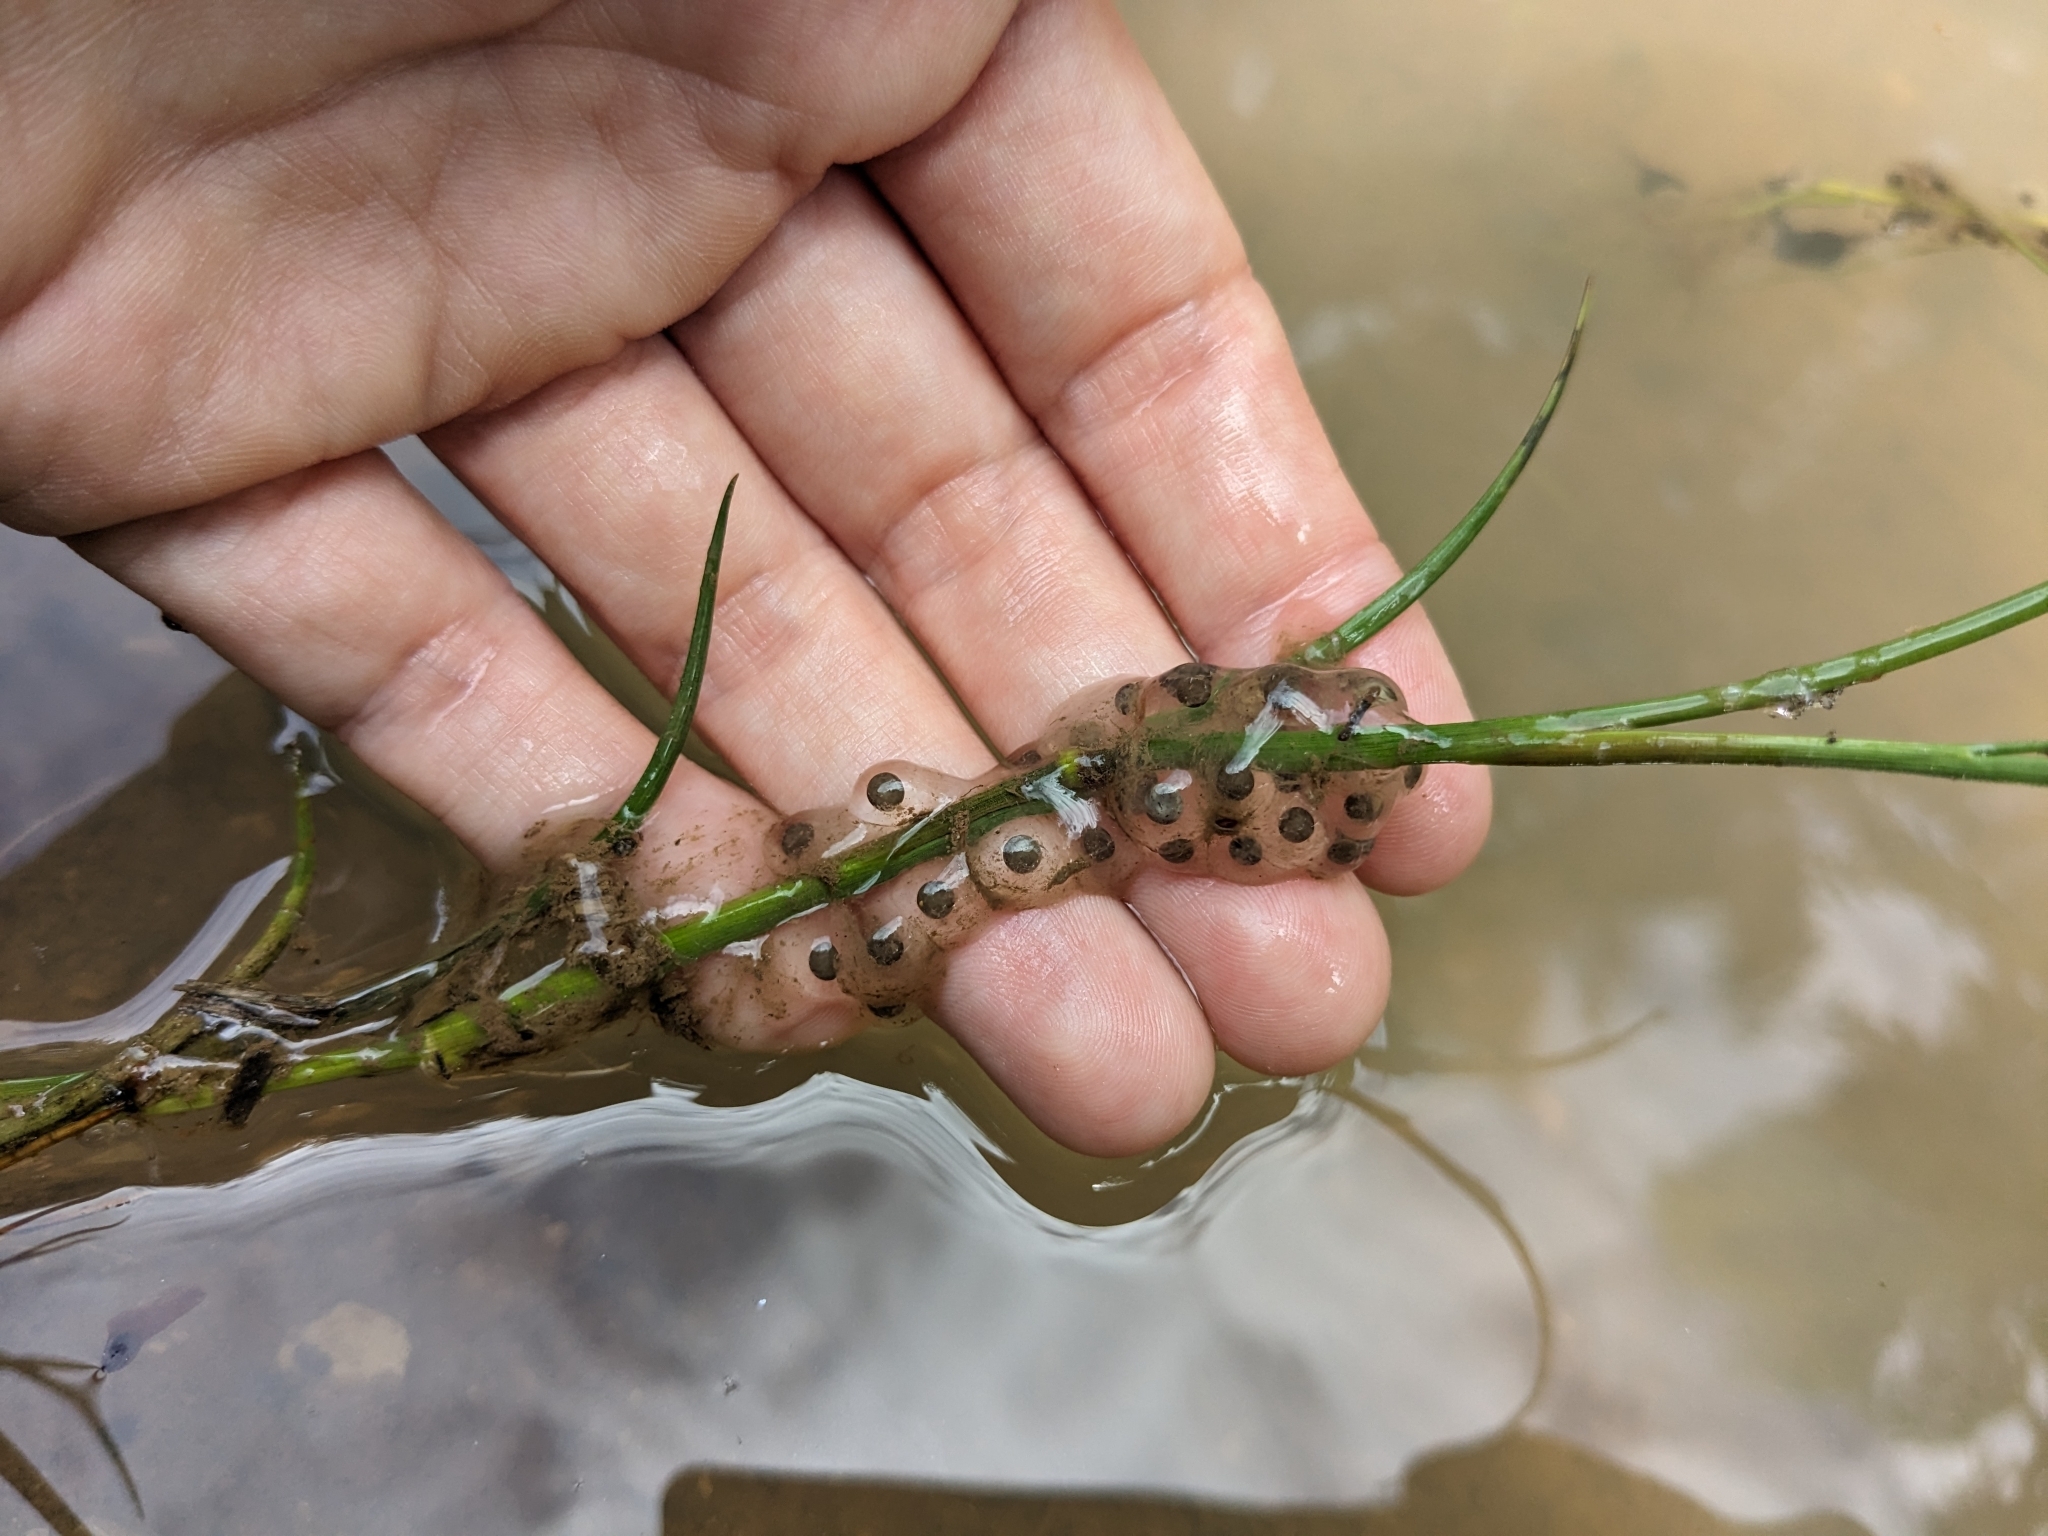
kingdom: Animalia
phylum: Chordata
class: Amphibia
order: Anura
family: Bombinatoridae
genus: Bombina
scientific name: Bombina variegata
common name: Yellow-bellied toad
